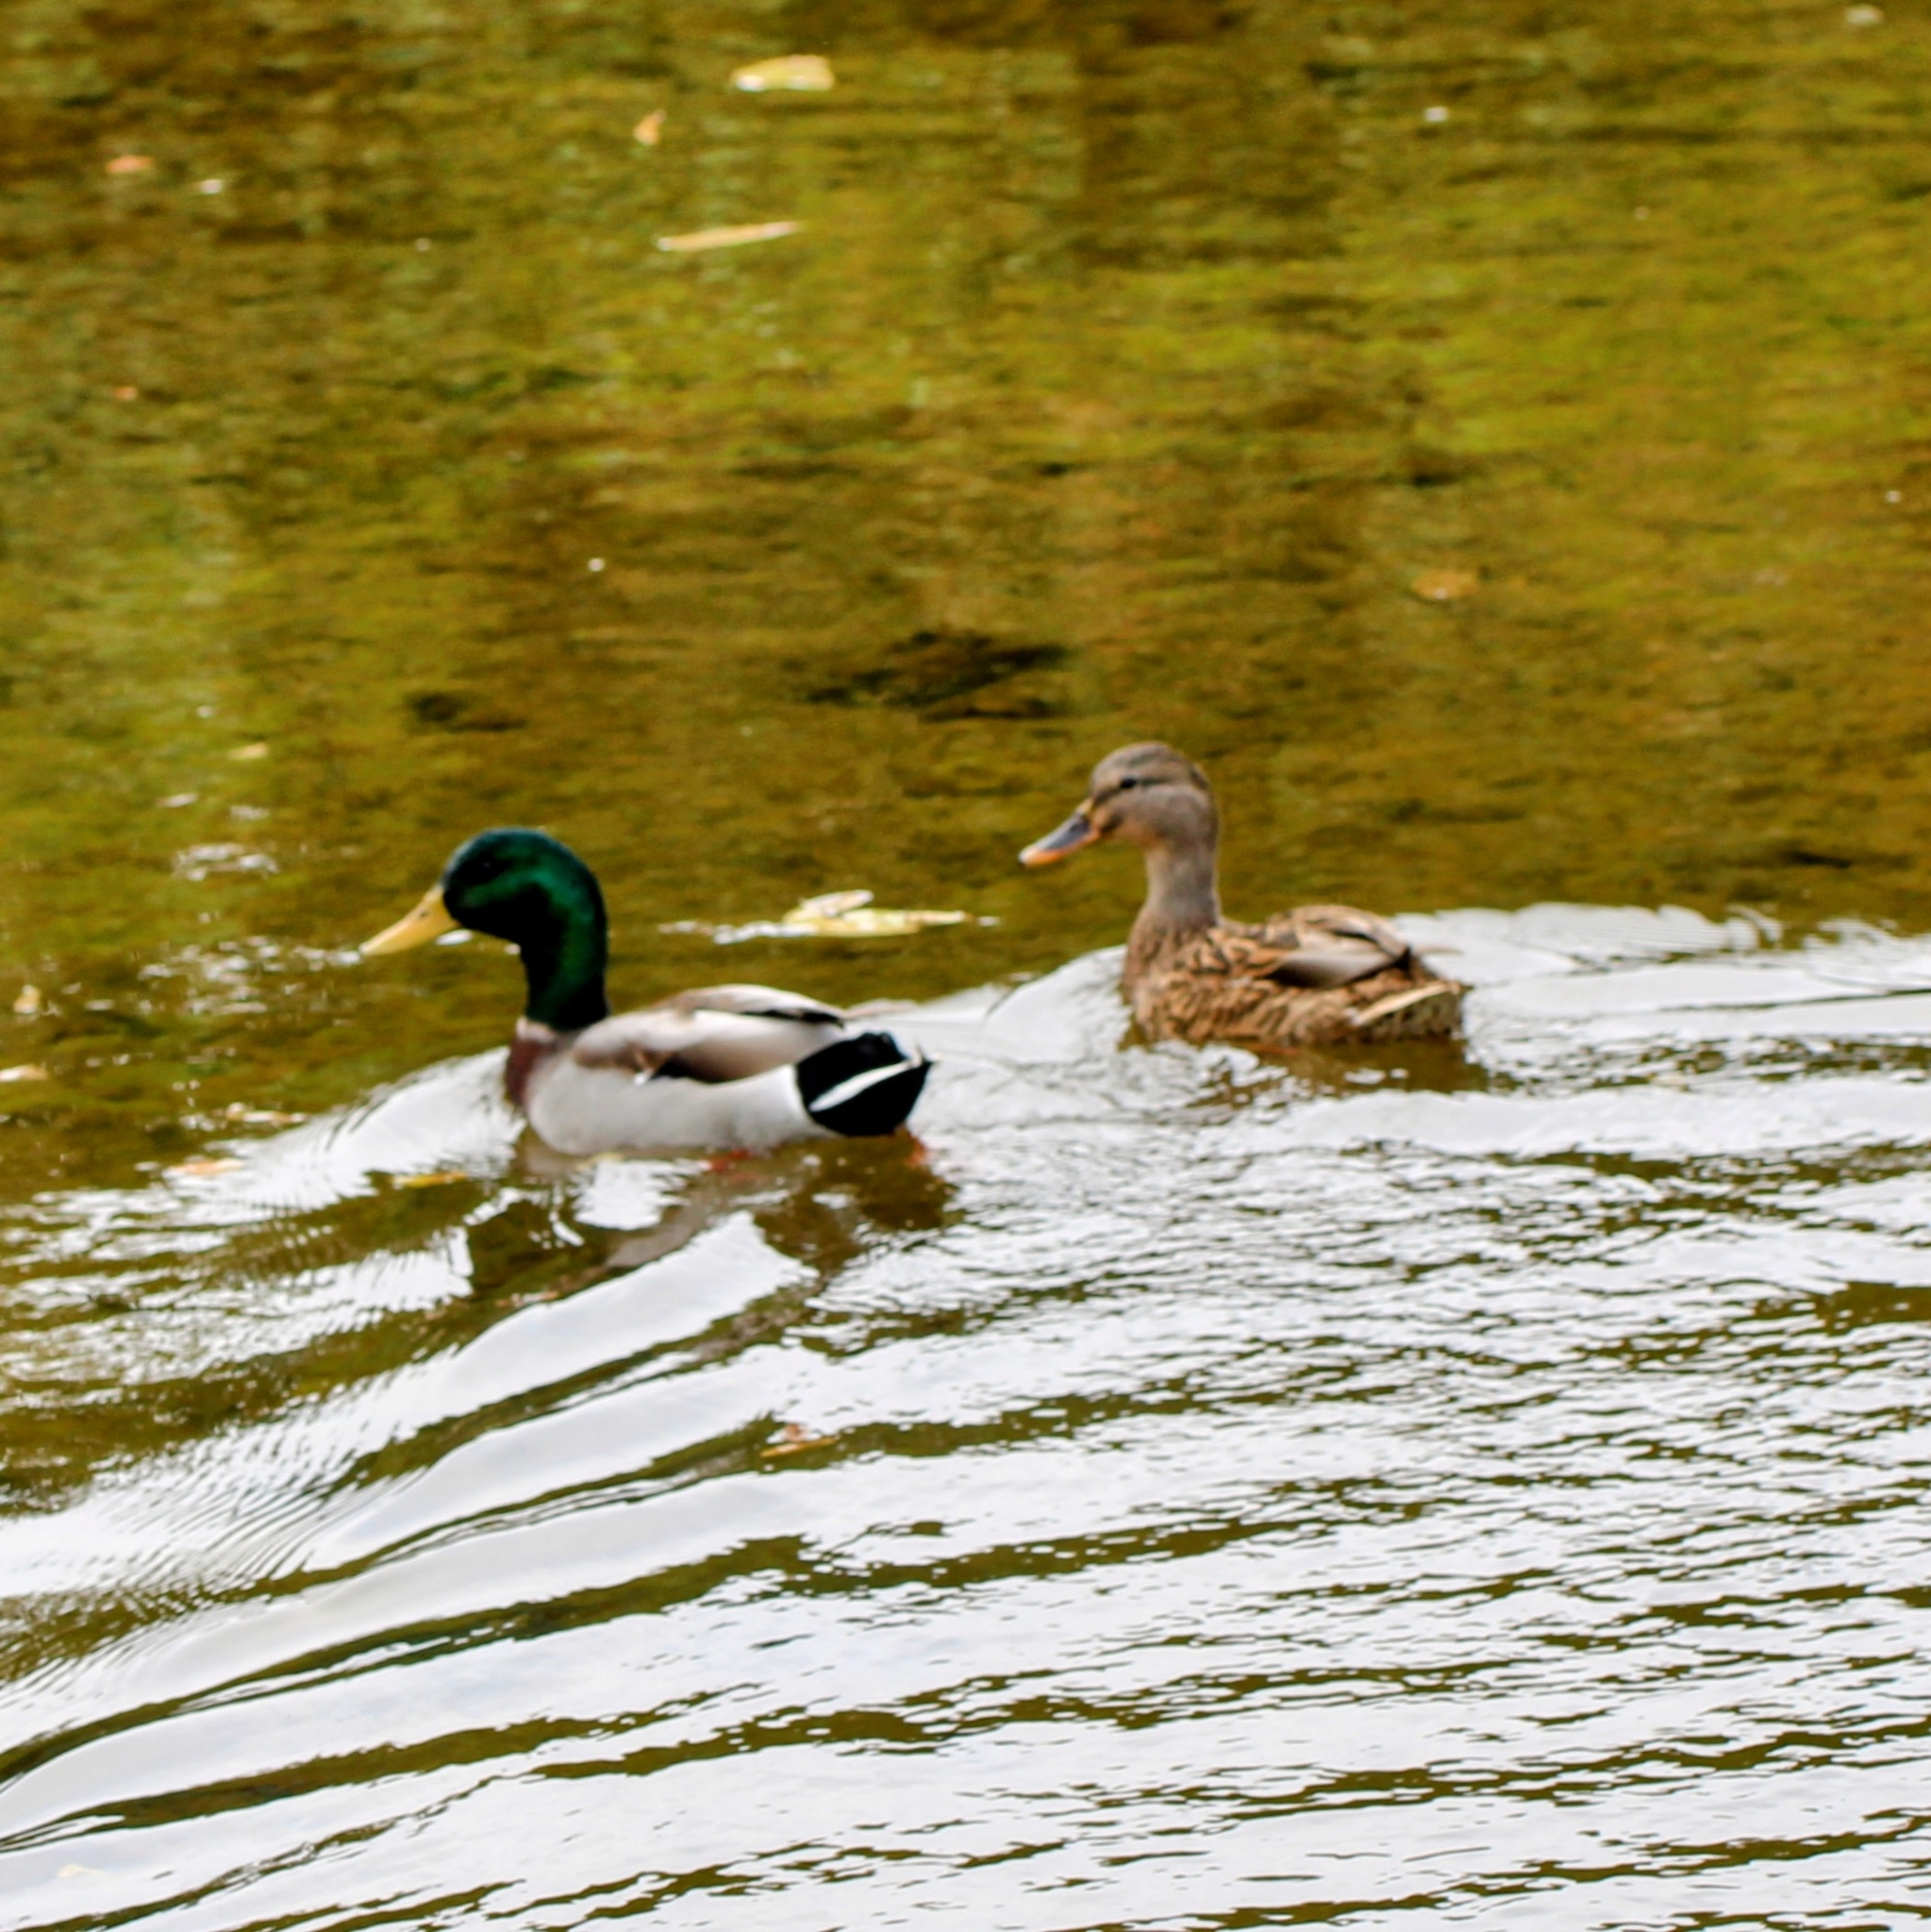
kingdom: Animalia
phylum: Chordata
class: Aves
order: Anseriformes
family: Anatidae
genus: Anas
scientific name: Anas platyrhynchos
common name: Mallard
